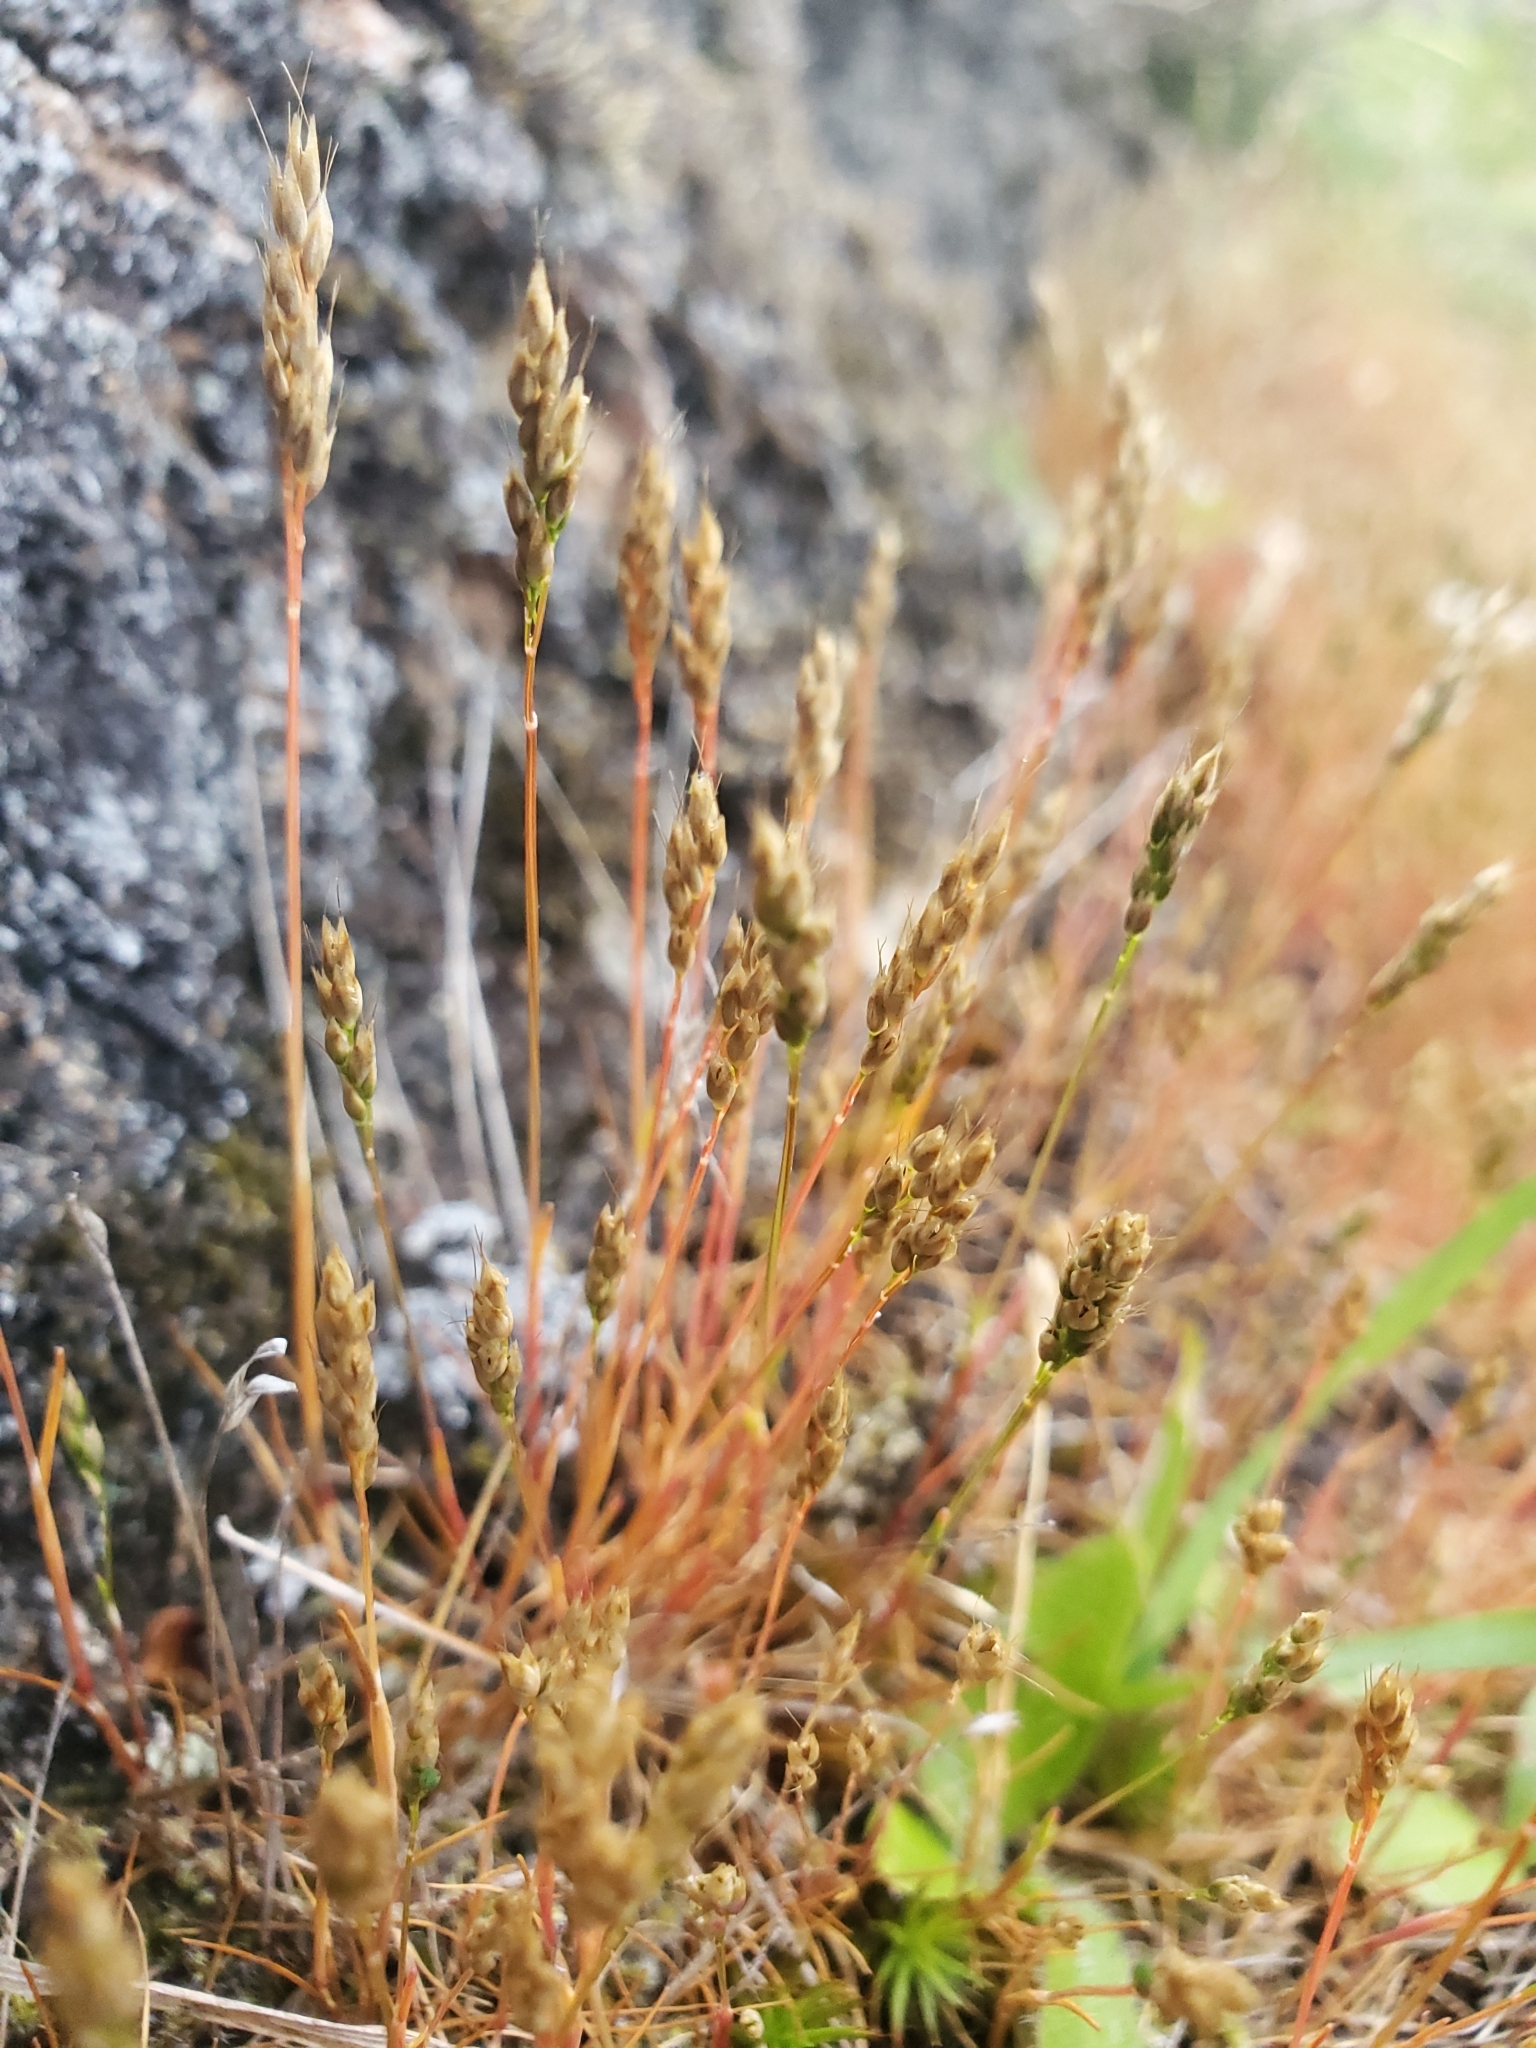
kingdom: Plantae
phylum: Tracheophyta
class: Liliopsida
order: Poales
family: Poaceae
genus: Aira
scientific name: Aira praecox
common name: Early hair-grass
